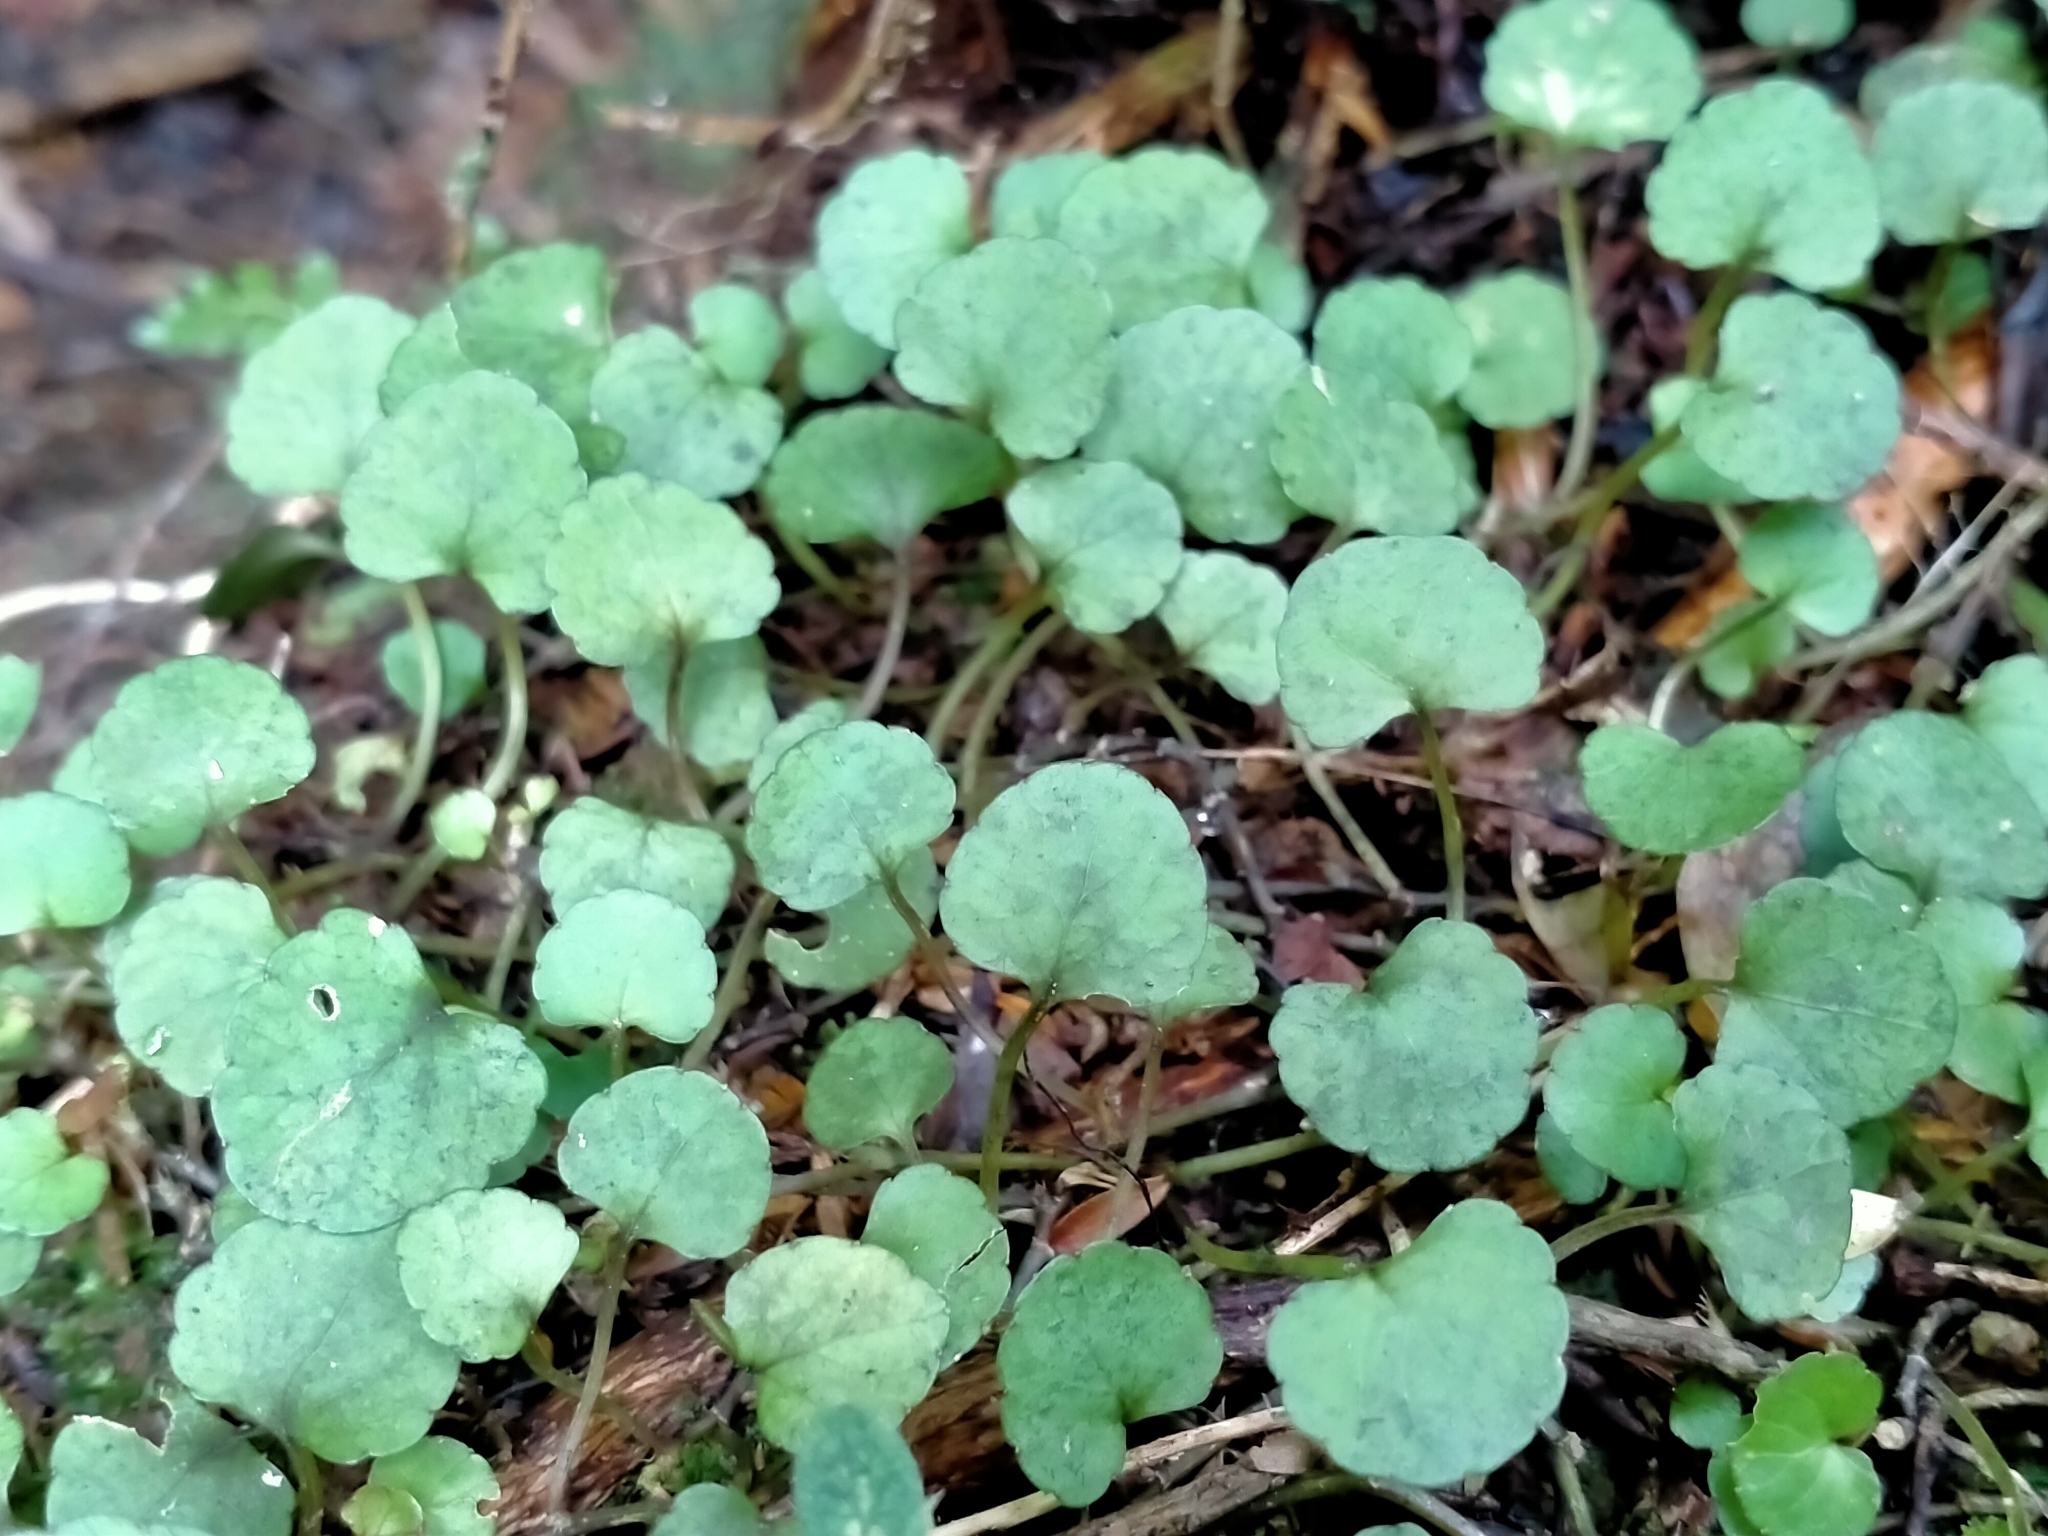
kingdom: Plantae
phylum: Tracheophyta
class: Magnoliopsida
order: Malpighiales
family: Violaceae
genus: Viola
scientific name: Viola filicaulis
